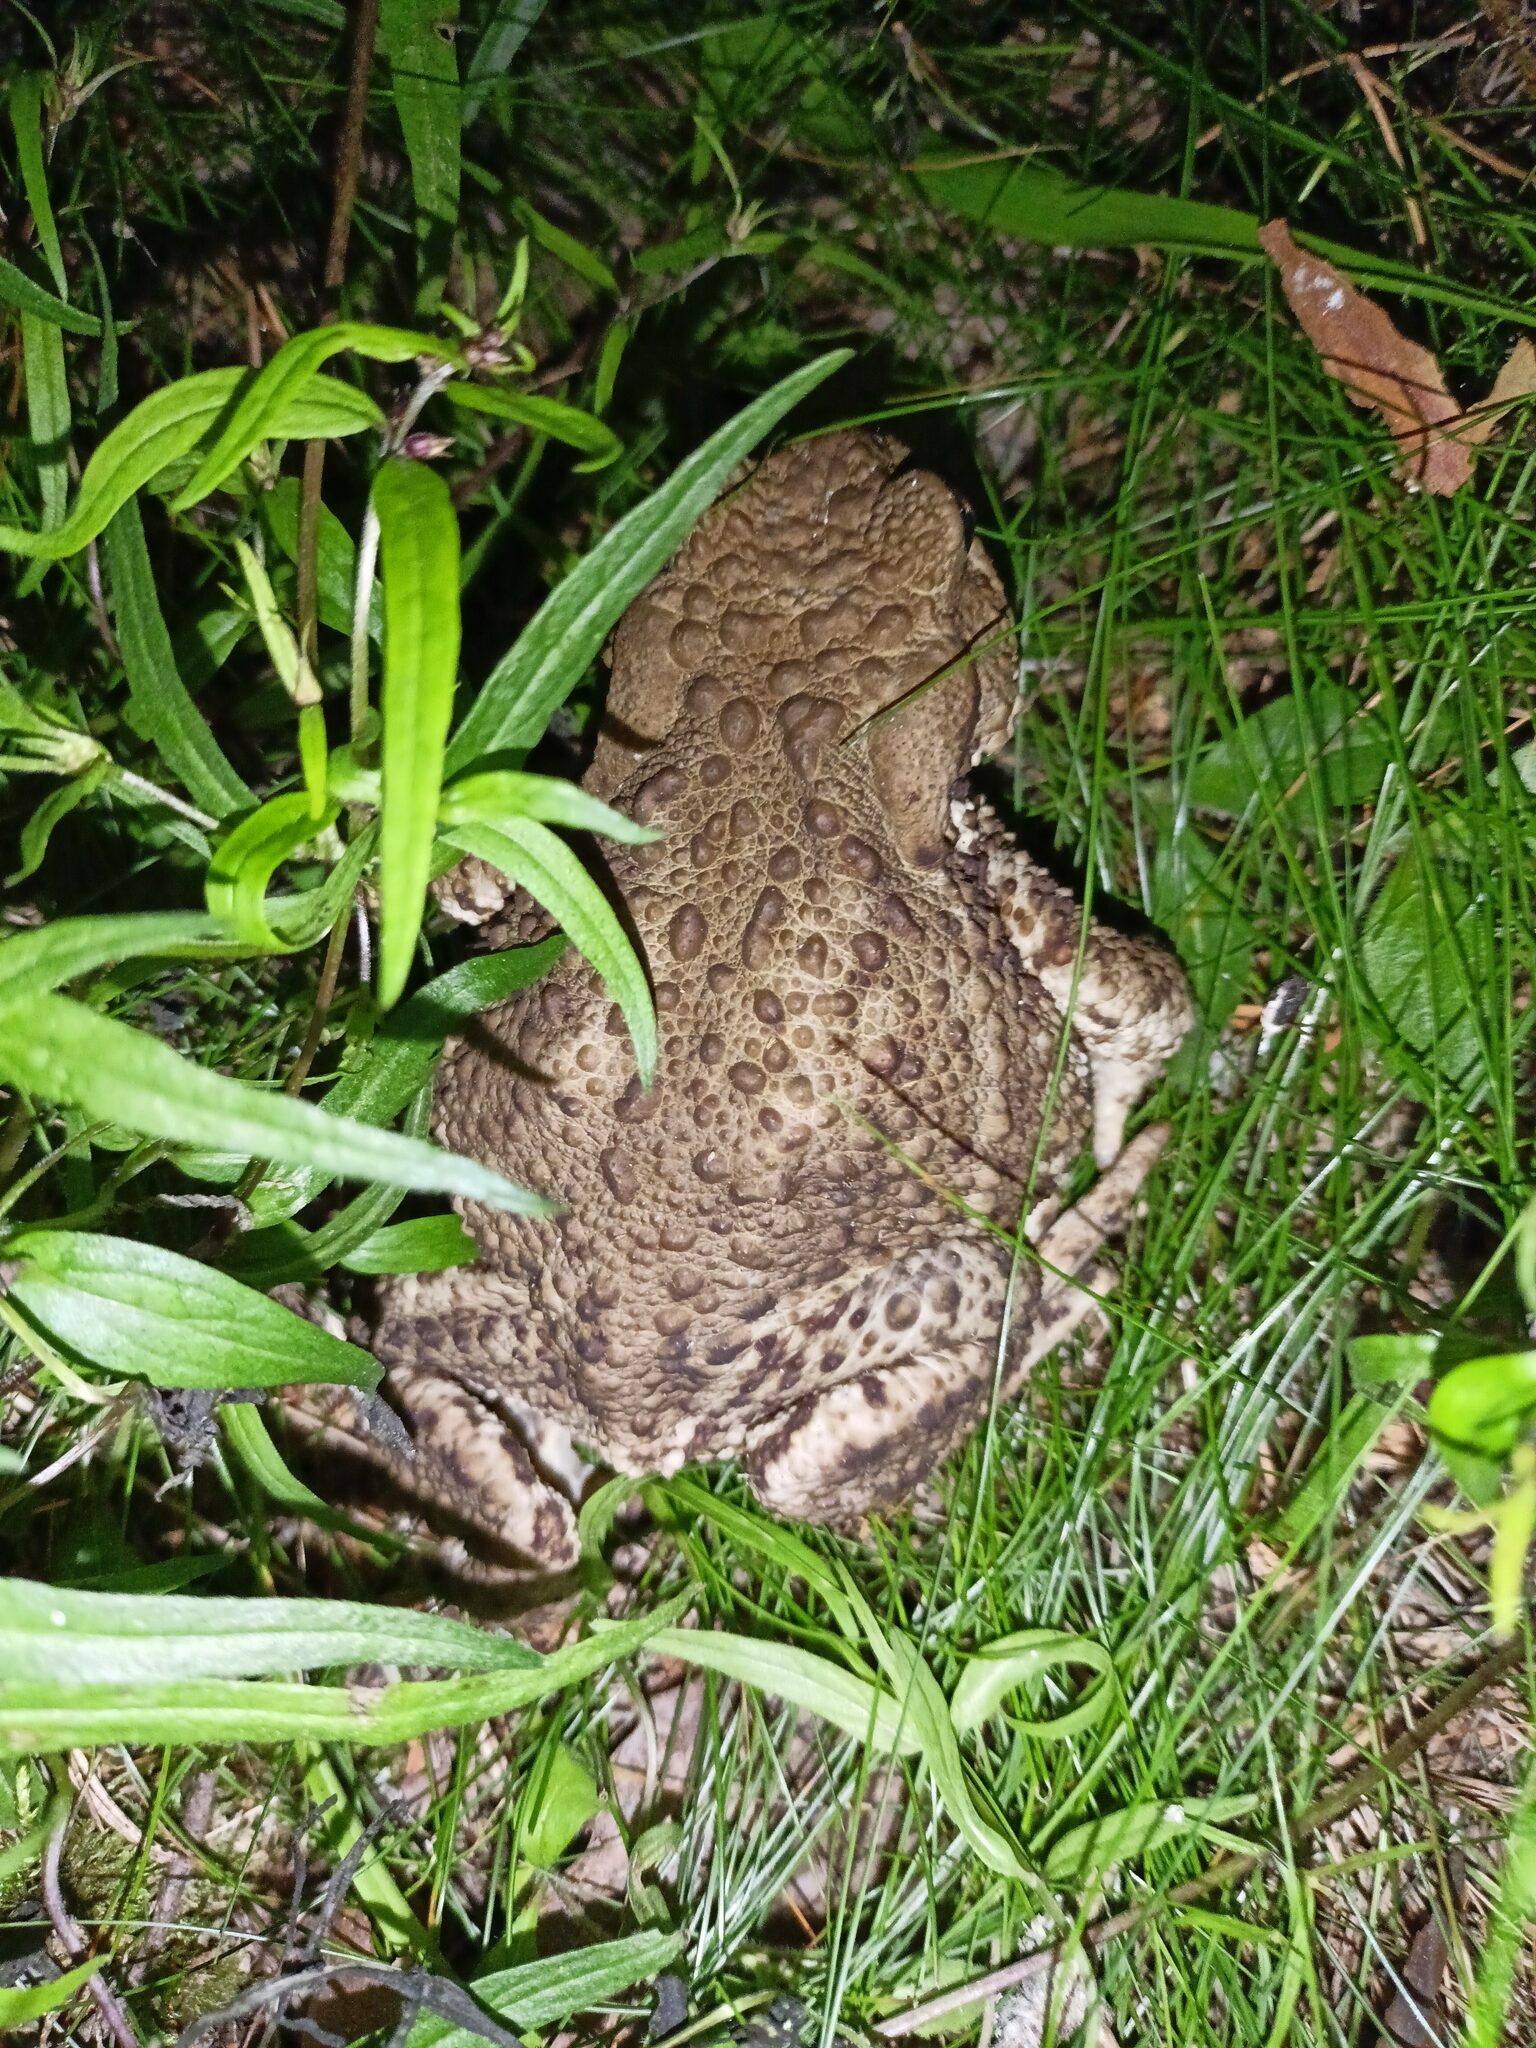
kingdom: Animalia
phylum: Chordata
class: Amphibia
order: Anura
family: Bufonidae
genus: Bufo
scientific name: Bufo bufo
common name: Common toad
